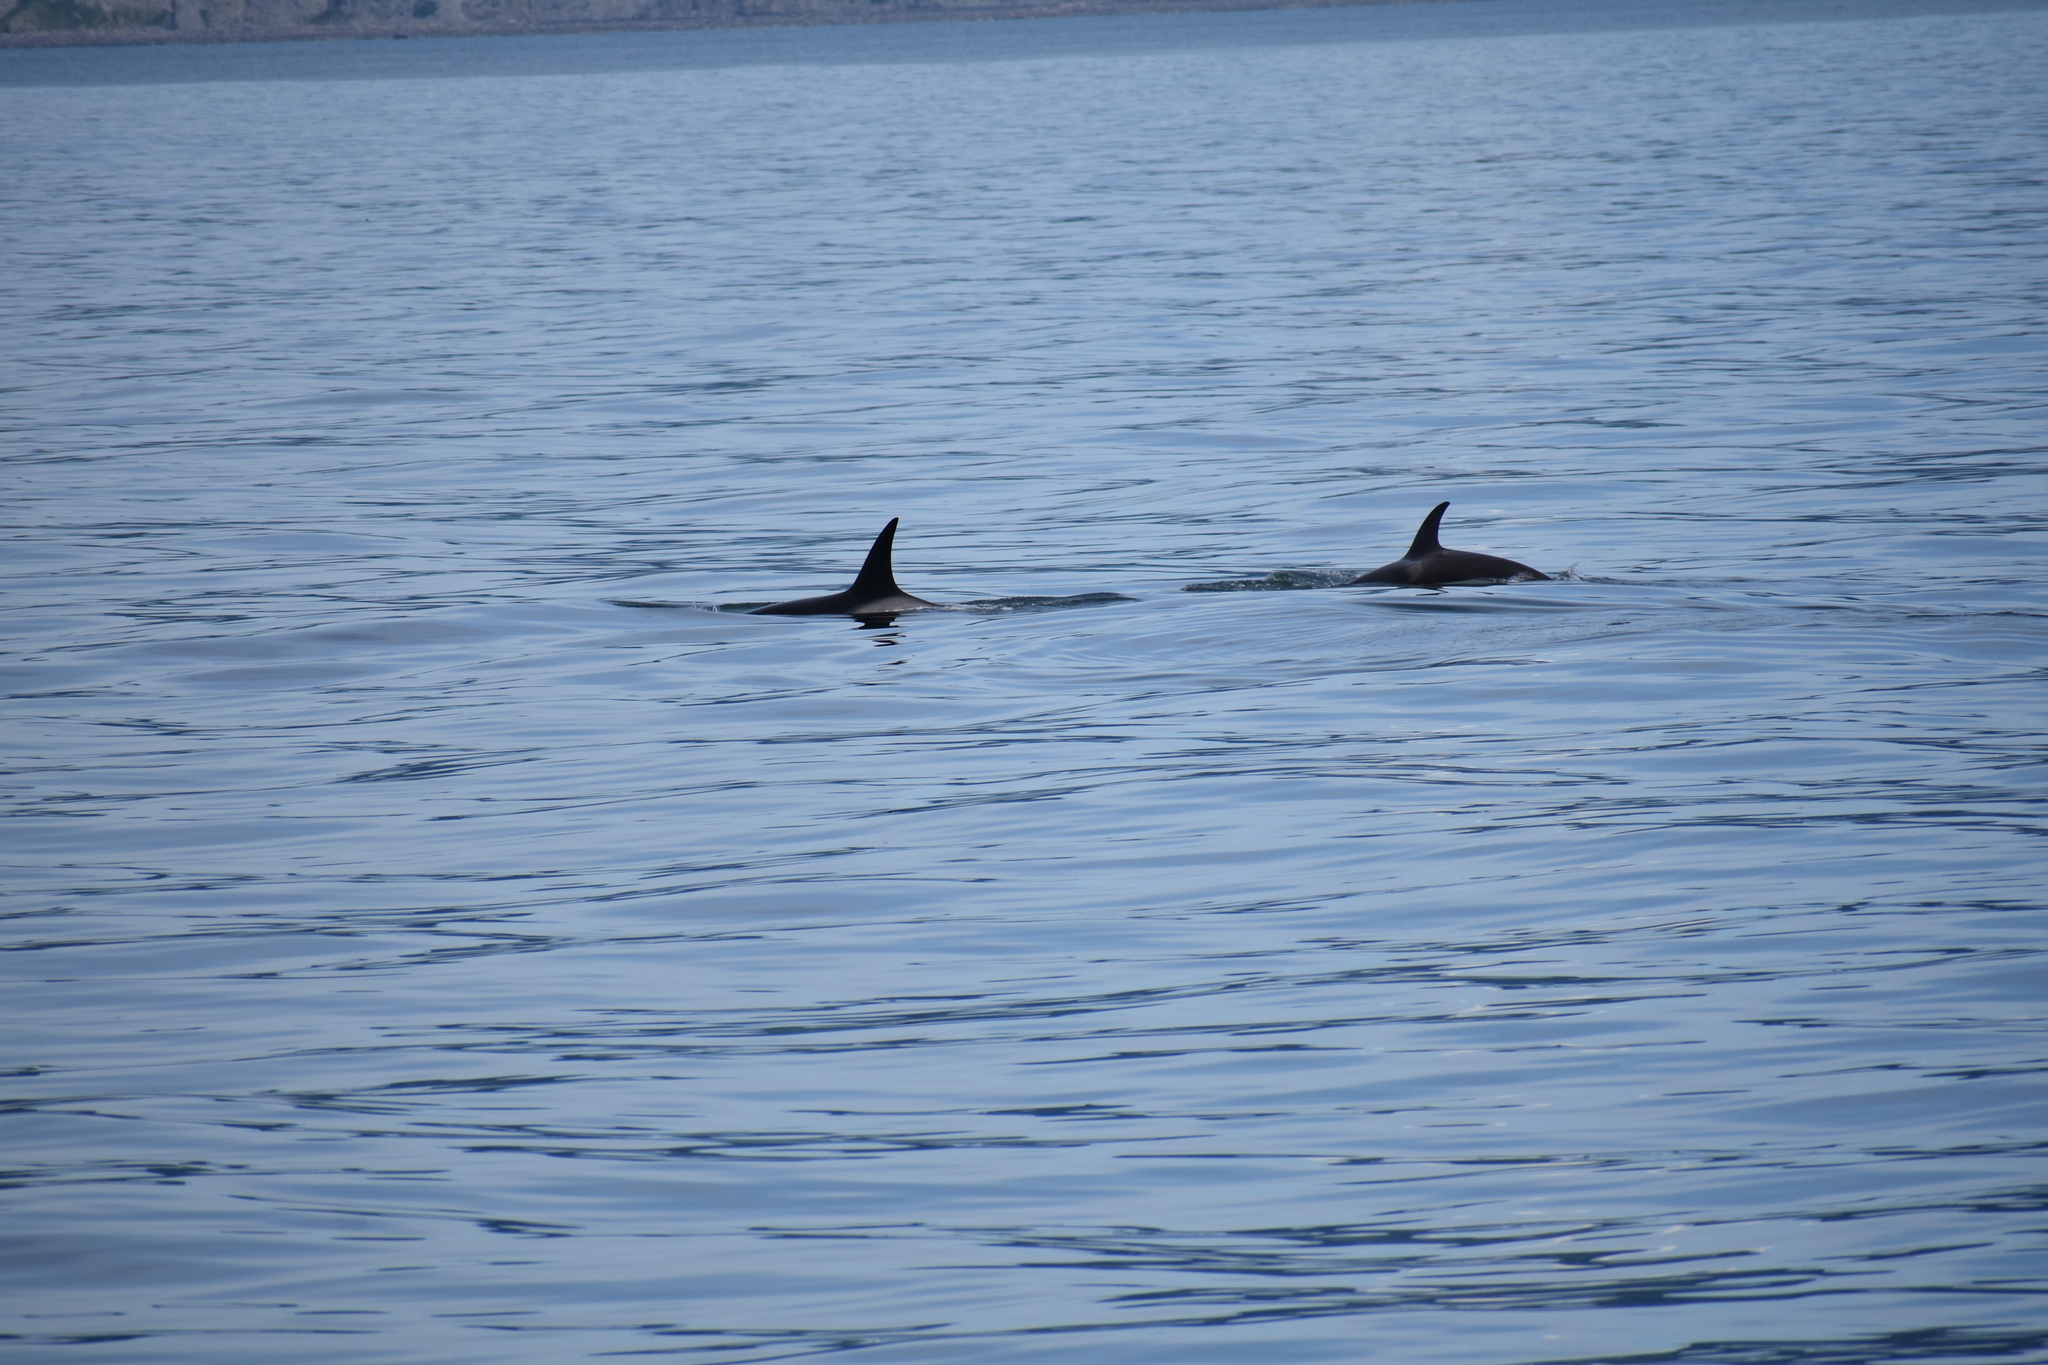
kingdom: Animalia
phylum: Chordata
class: Mammalia
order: Cetacea
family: Delphinidae
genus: Orcinus
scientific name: Orcinus orca
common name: Killer whale
